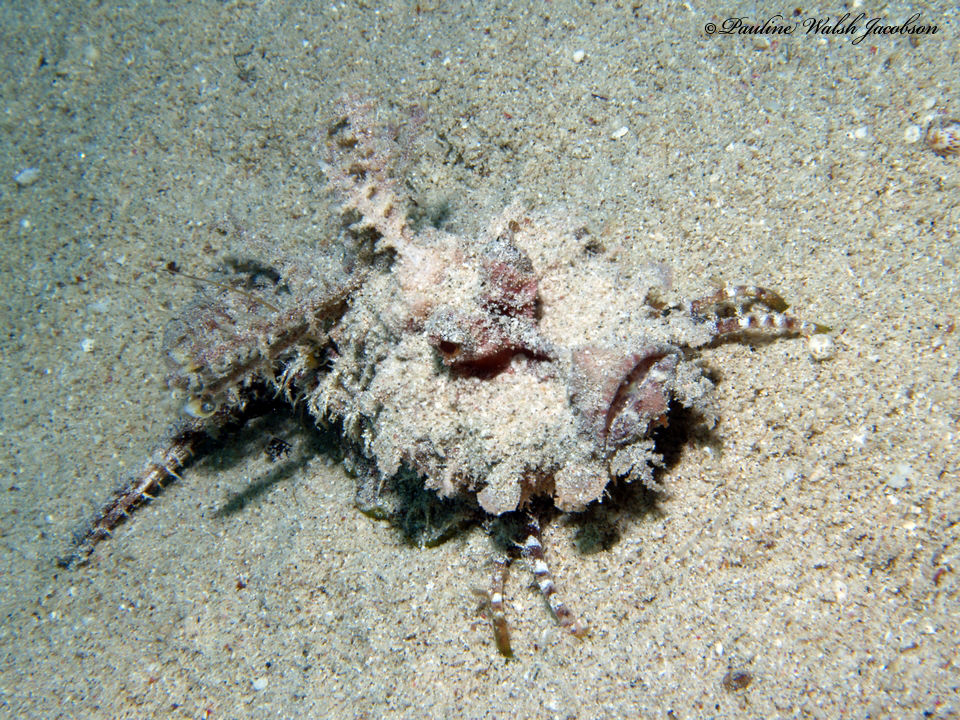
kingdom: Animalia
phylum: Chordata
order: Scorpaeniformes
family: Synanceiidae
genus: Inimicus
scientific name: Inimicus filamentosus
